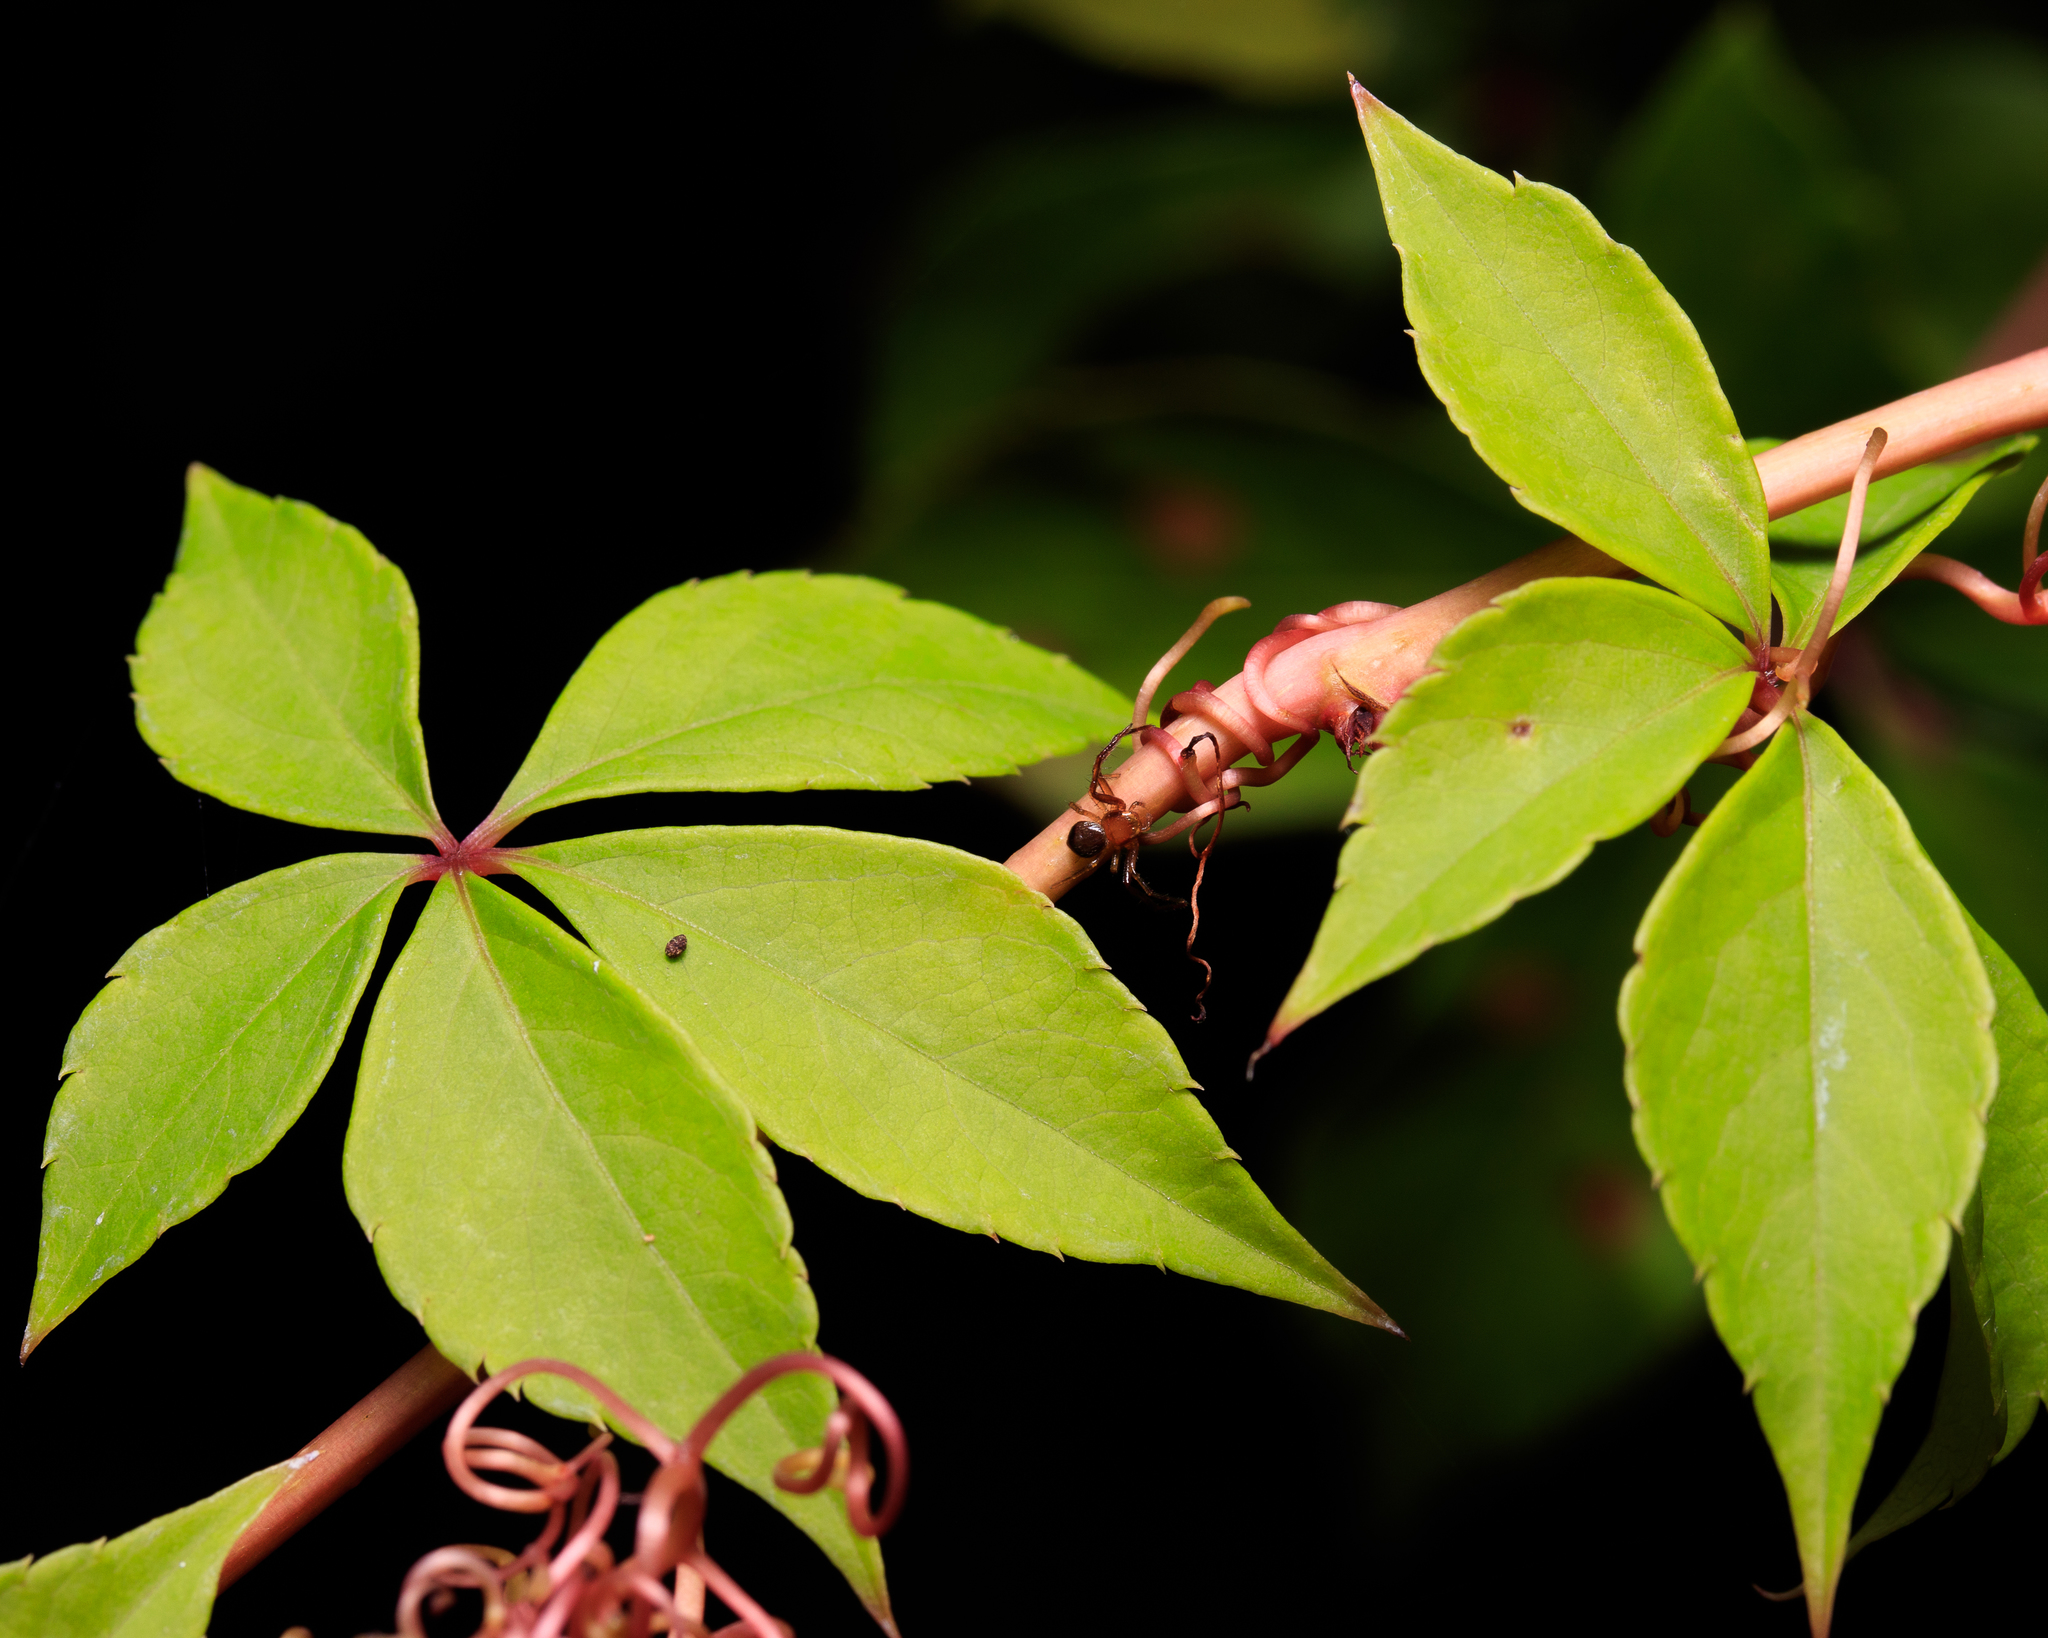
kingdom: Plantae
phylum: Tracheophyta
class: Magnoliopsida
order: Vitales
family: Vitaceae
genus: Parthenocissus
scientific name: Parthenocissus quinquefolia
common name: Virginia-creeper
